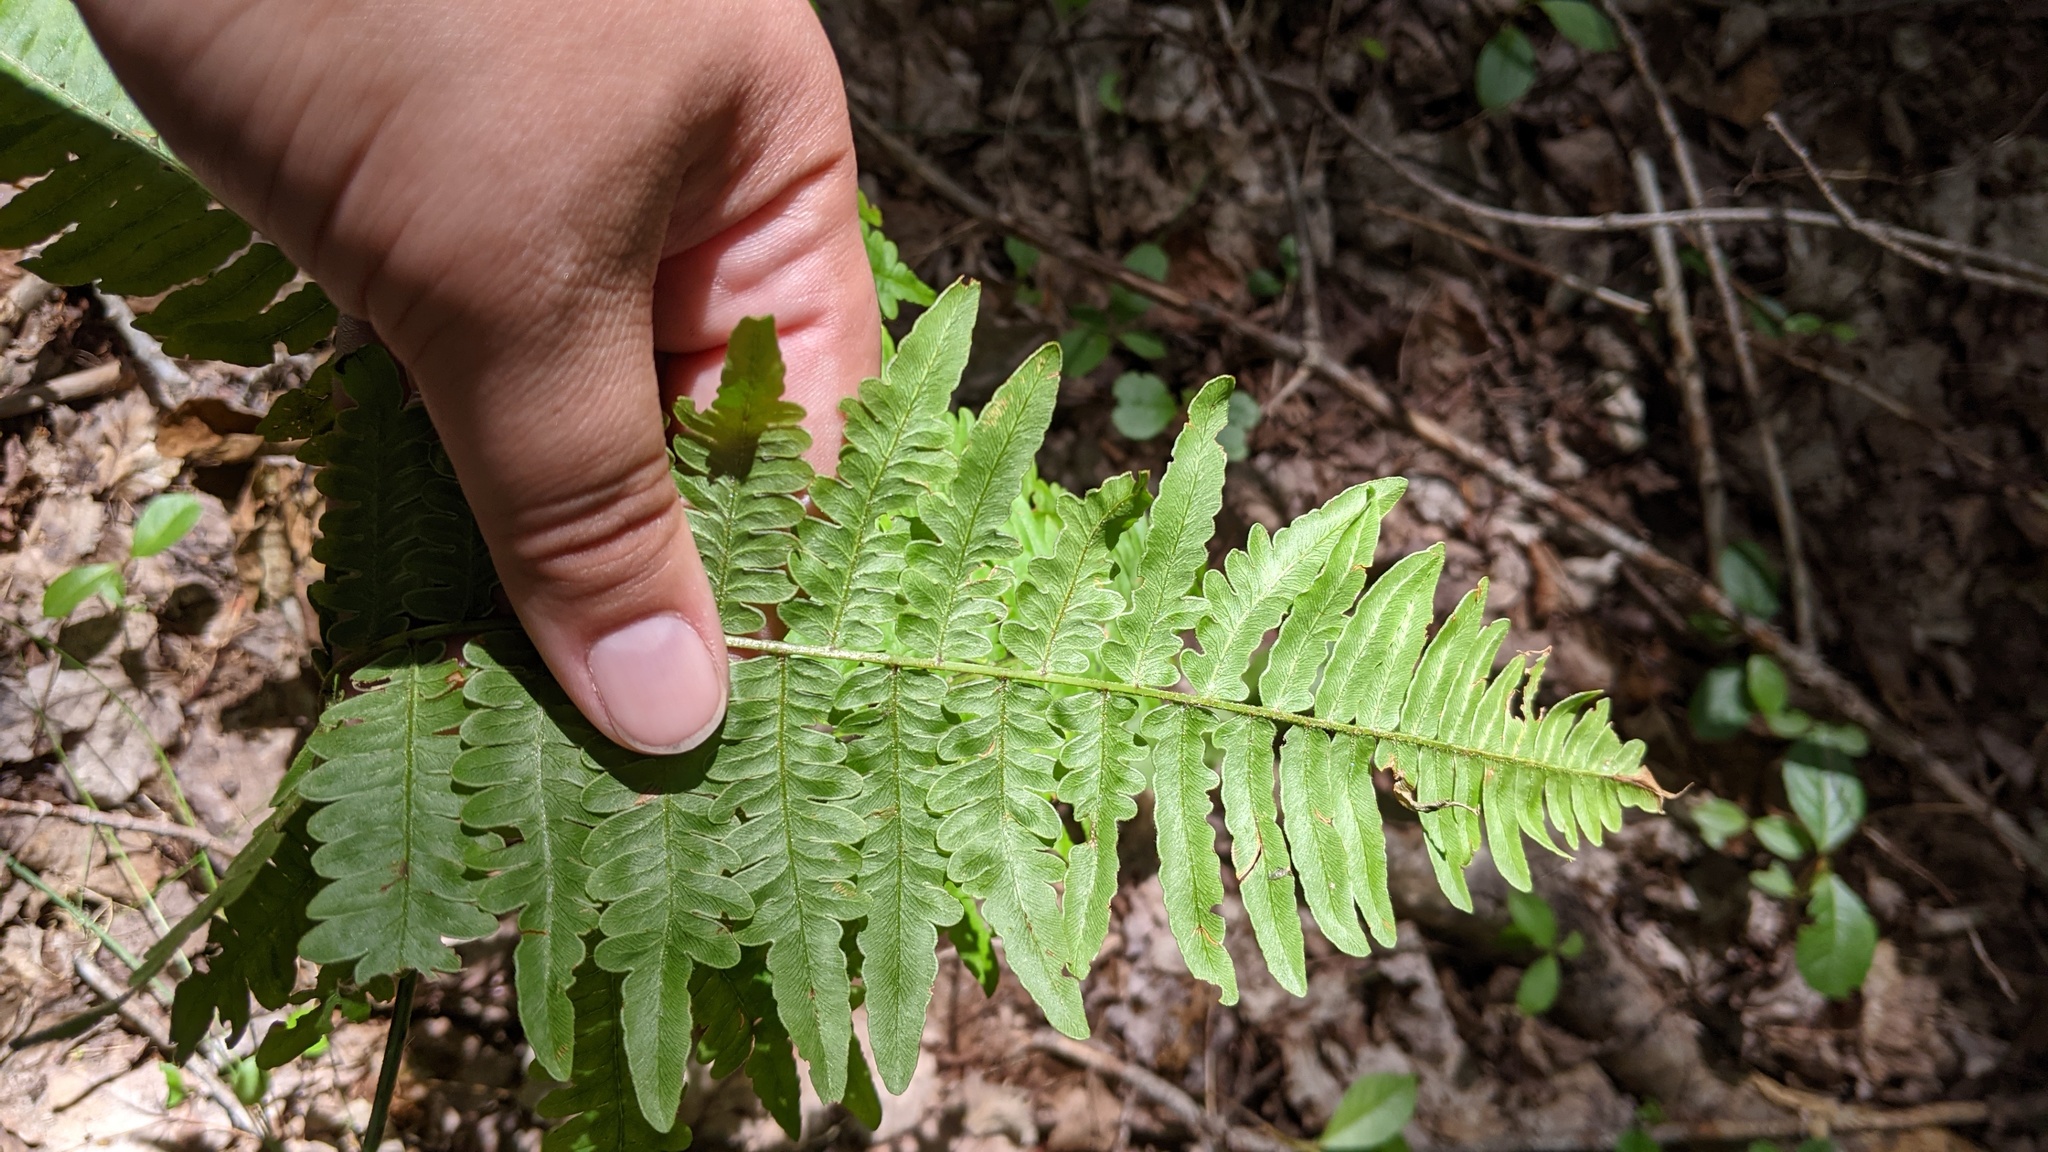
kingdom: Plantae
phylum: Tracheophyta
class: Polypodiopsida
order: Polypodiales
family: Dennstaedtiaceae
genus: Pteridium
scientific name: Pteridium aquilinum
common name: Bracken
